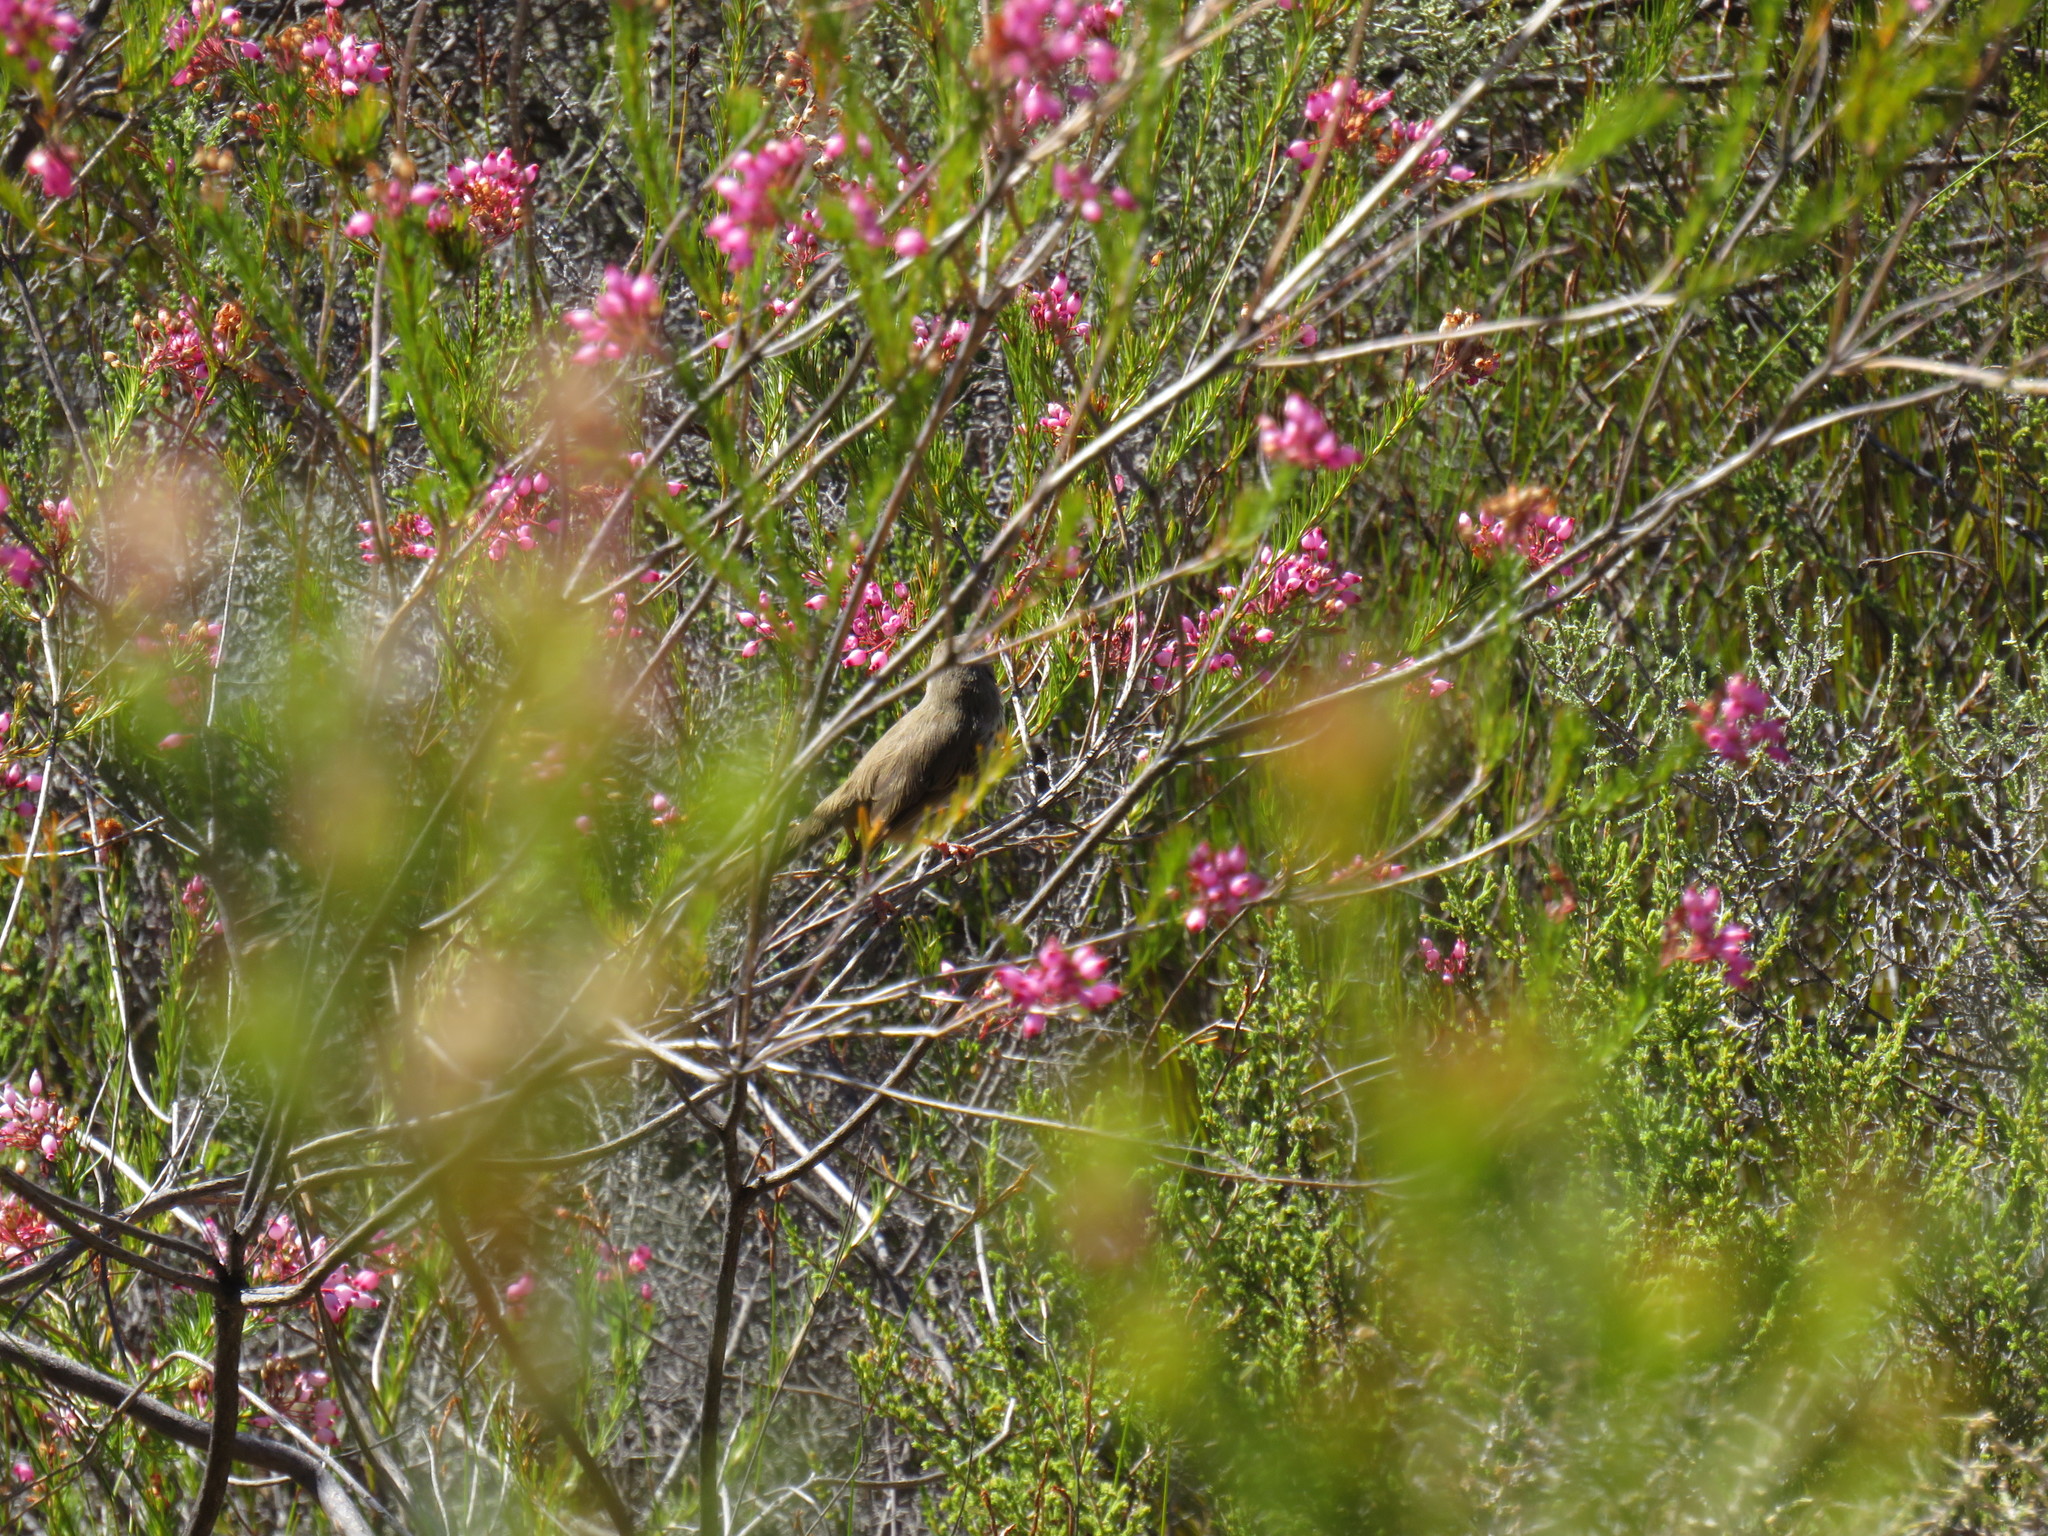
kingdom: Animalia
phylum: Chordata
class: Aves
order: Passeriformes
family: Cisticolidae
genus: Prinia
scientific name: Prinia maculosa
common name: Karoo prinia
